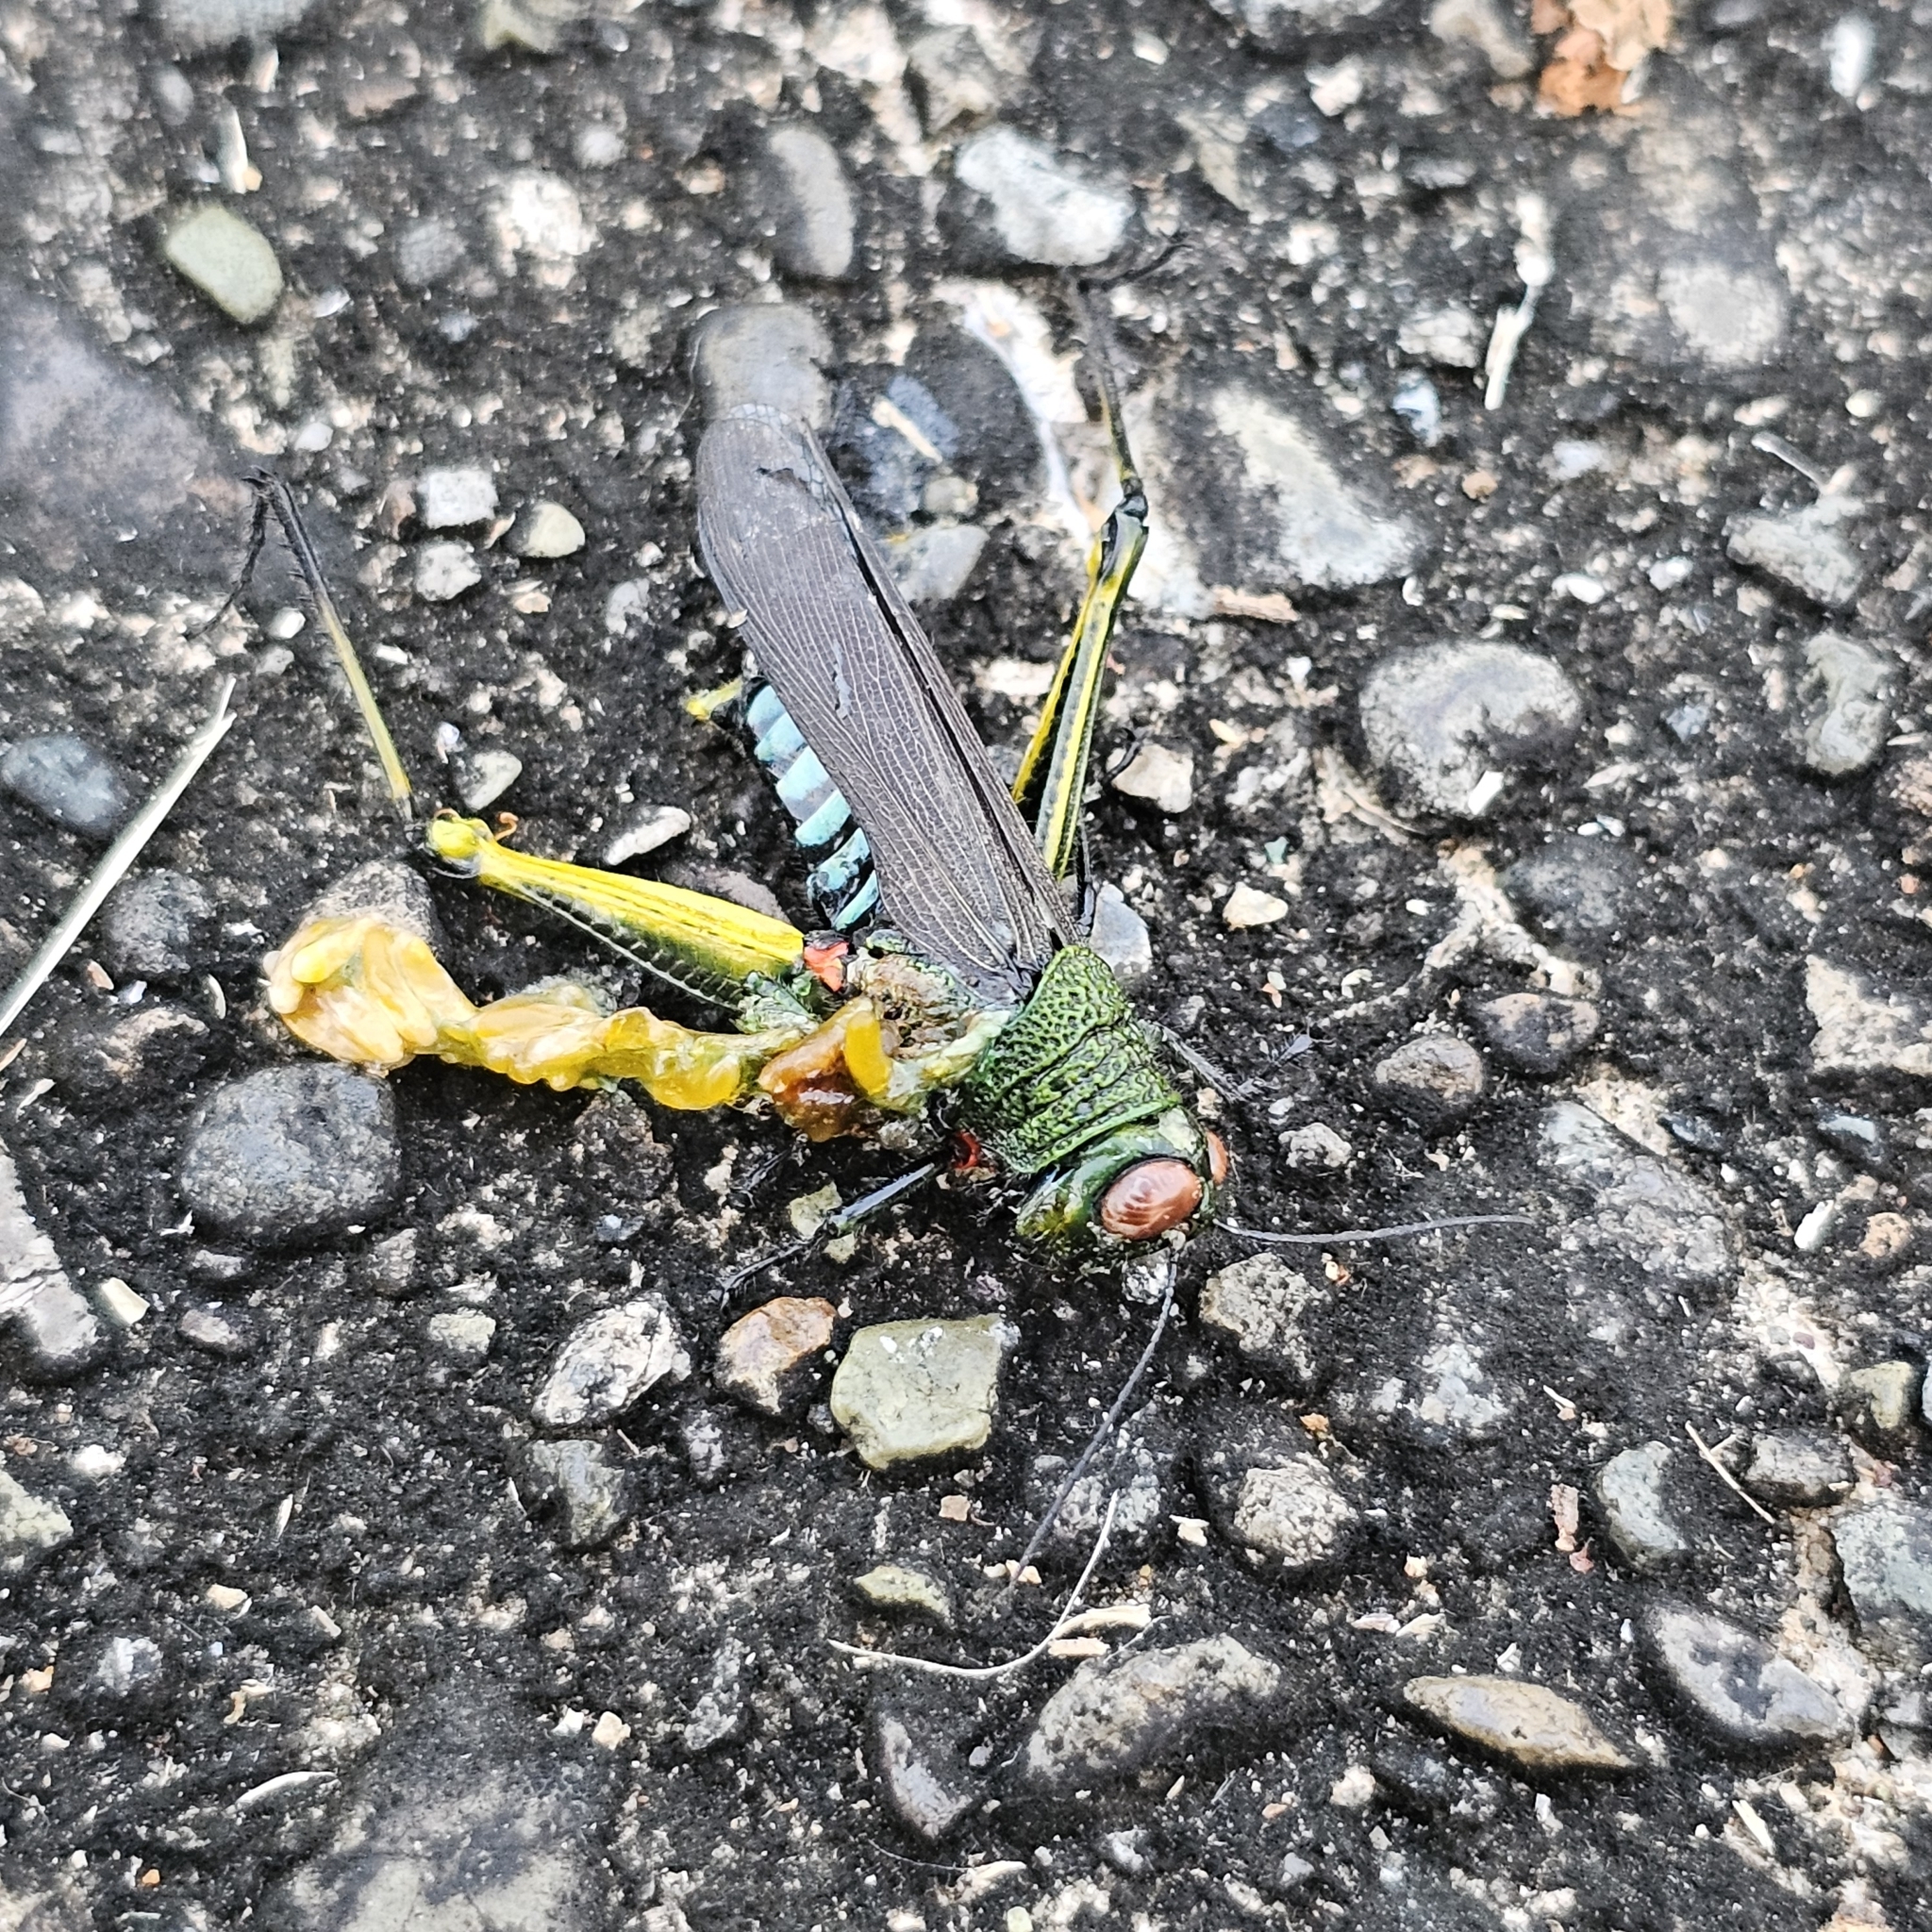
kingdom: Animalia
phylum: Arthropoda
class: Insecta
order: Orthoptera
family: Acrididae
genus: Coscineuta
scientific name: Coscineuta coxalis
